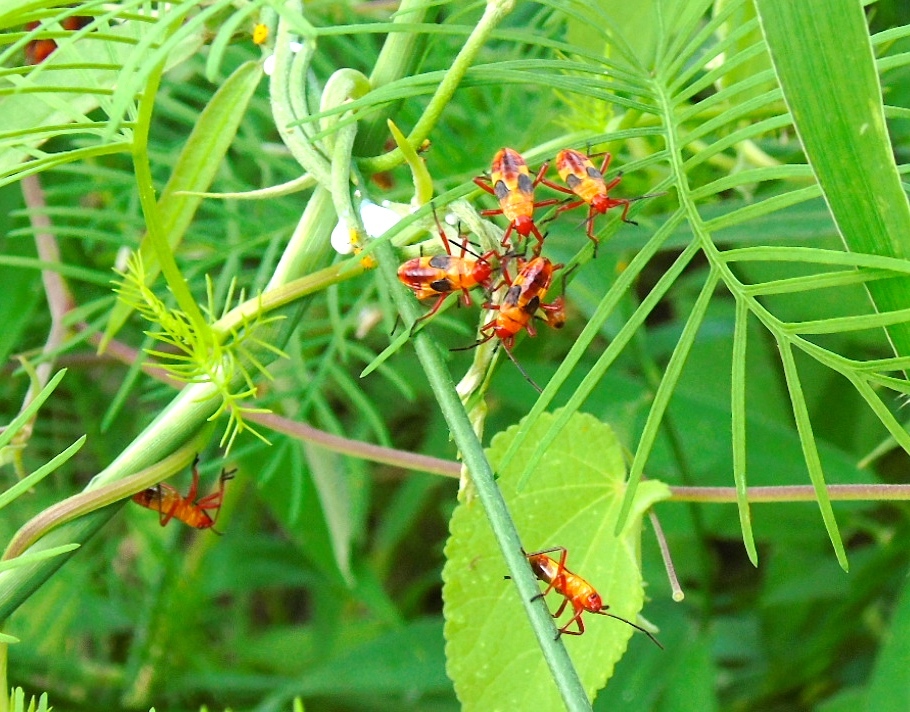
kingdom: Animalia
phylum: Arthropoda
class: Insecta
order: Hemiptera
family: Lygaeidae
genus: Oncopeltus
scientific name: Oncopeltus guttaloides
